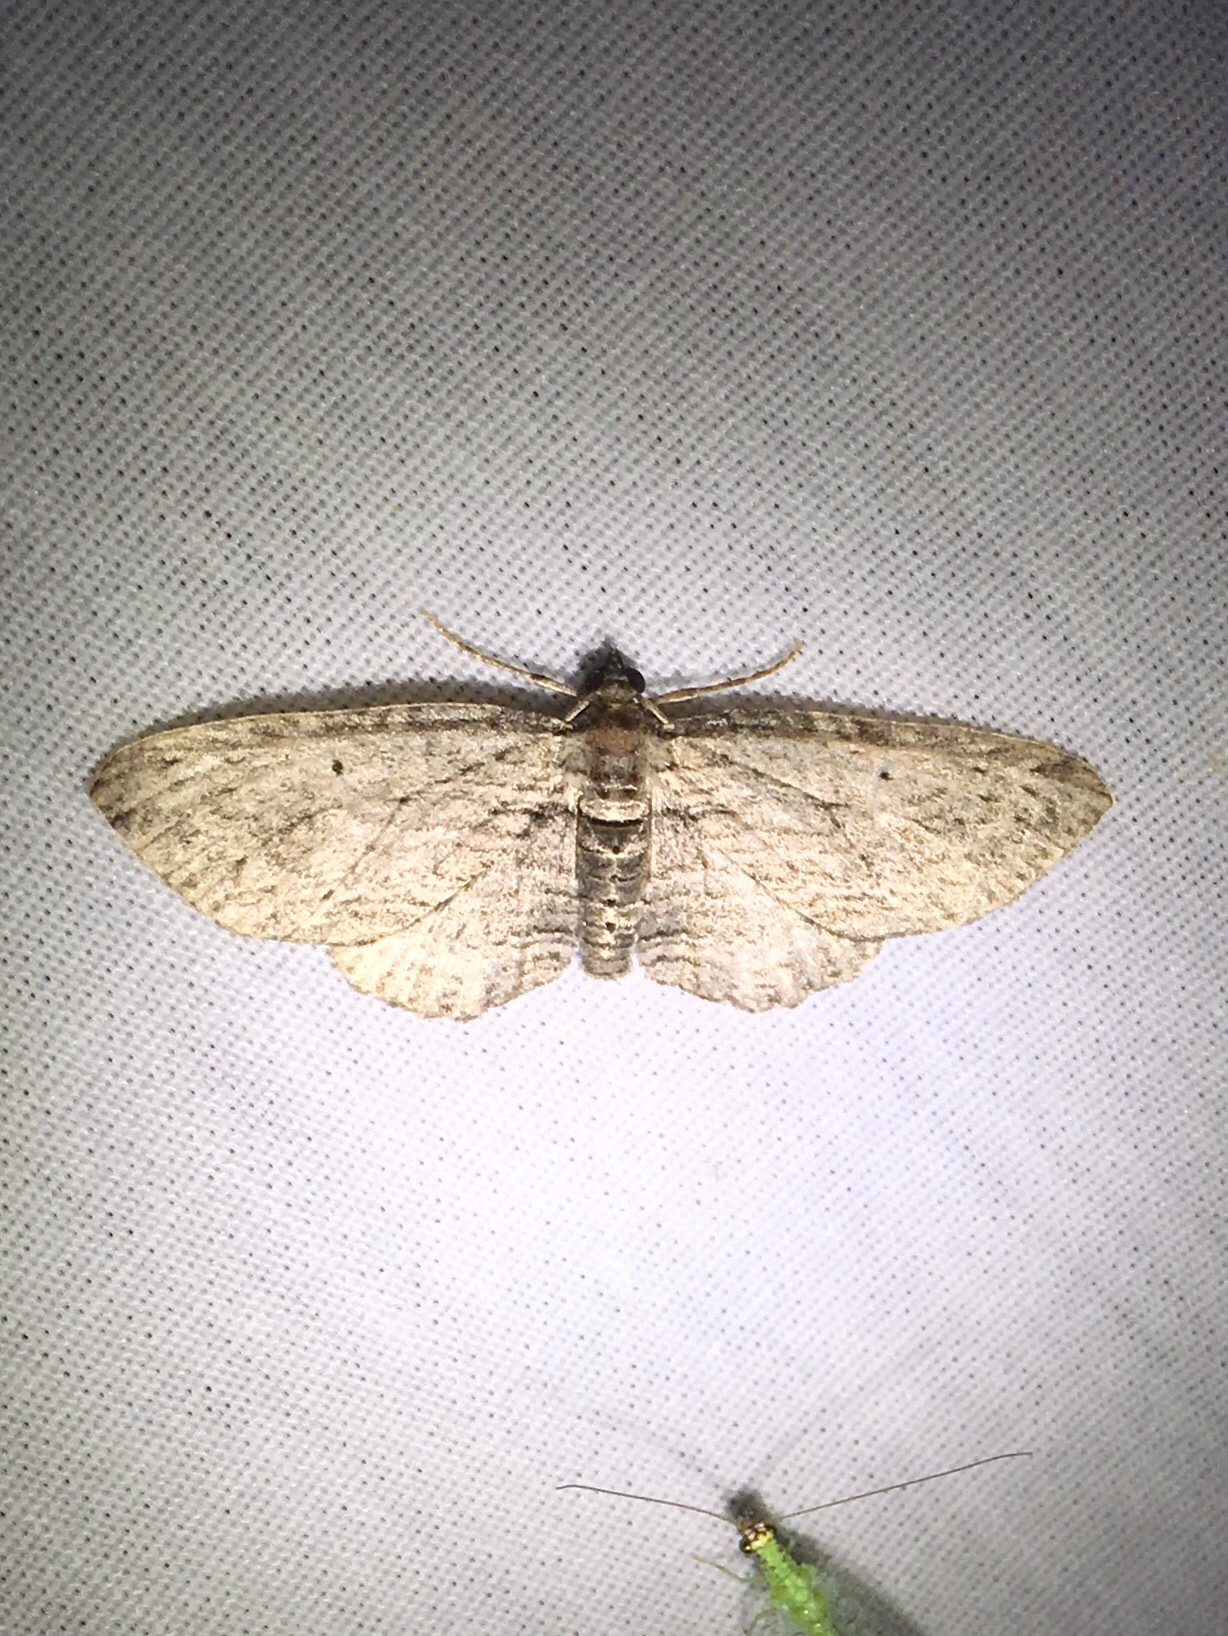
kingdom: Animalia
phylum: Arthropoda
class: Insecta
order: Lepidoptera
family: Geometridae
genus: Horisme
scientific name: Horisme intestinata
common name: Brown bark carpet
